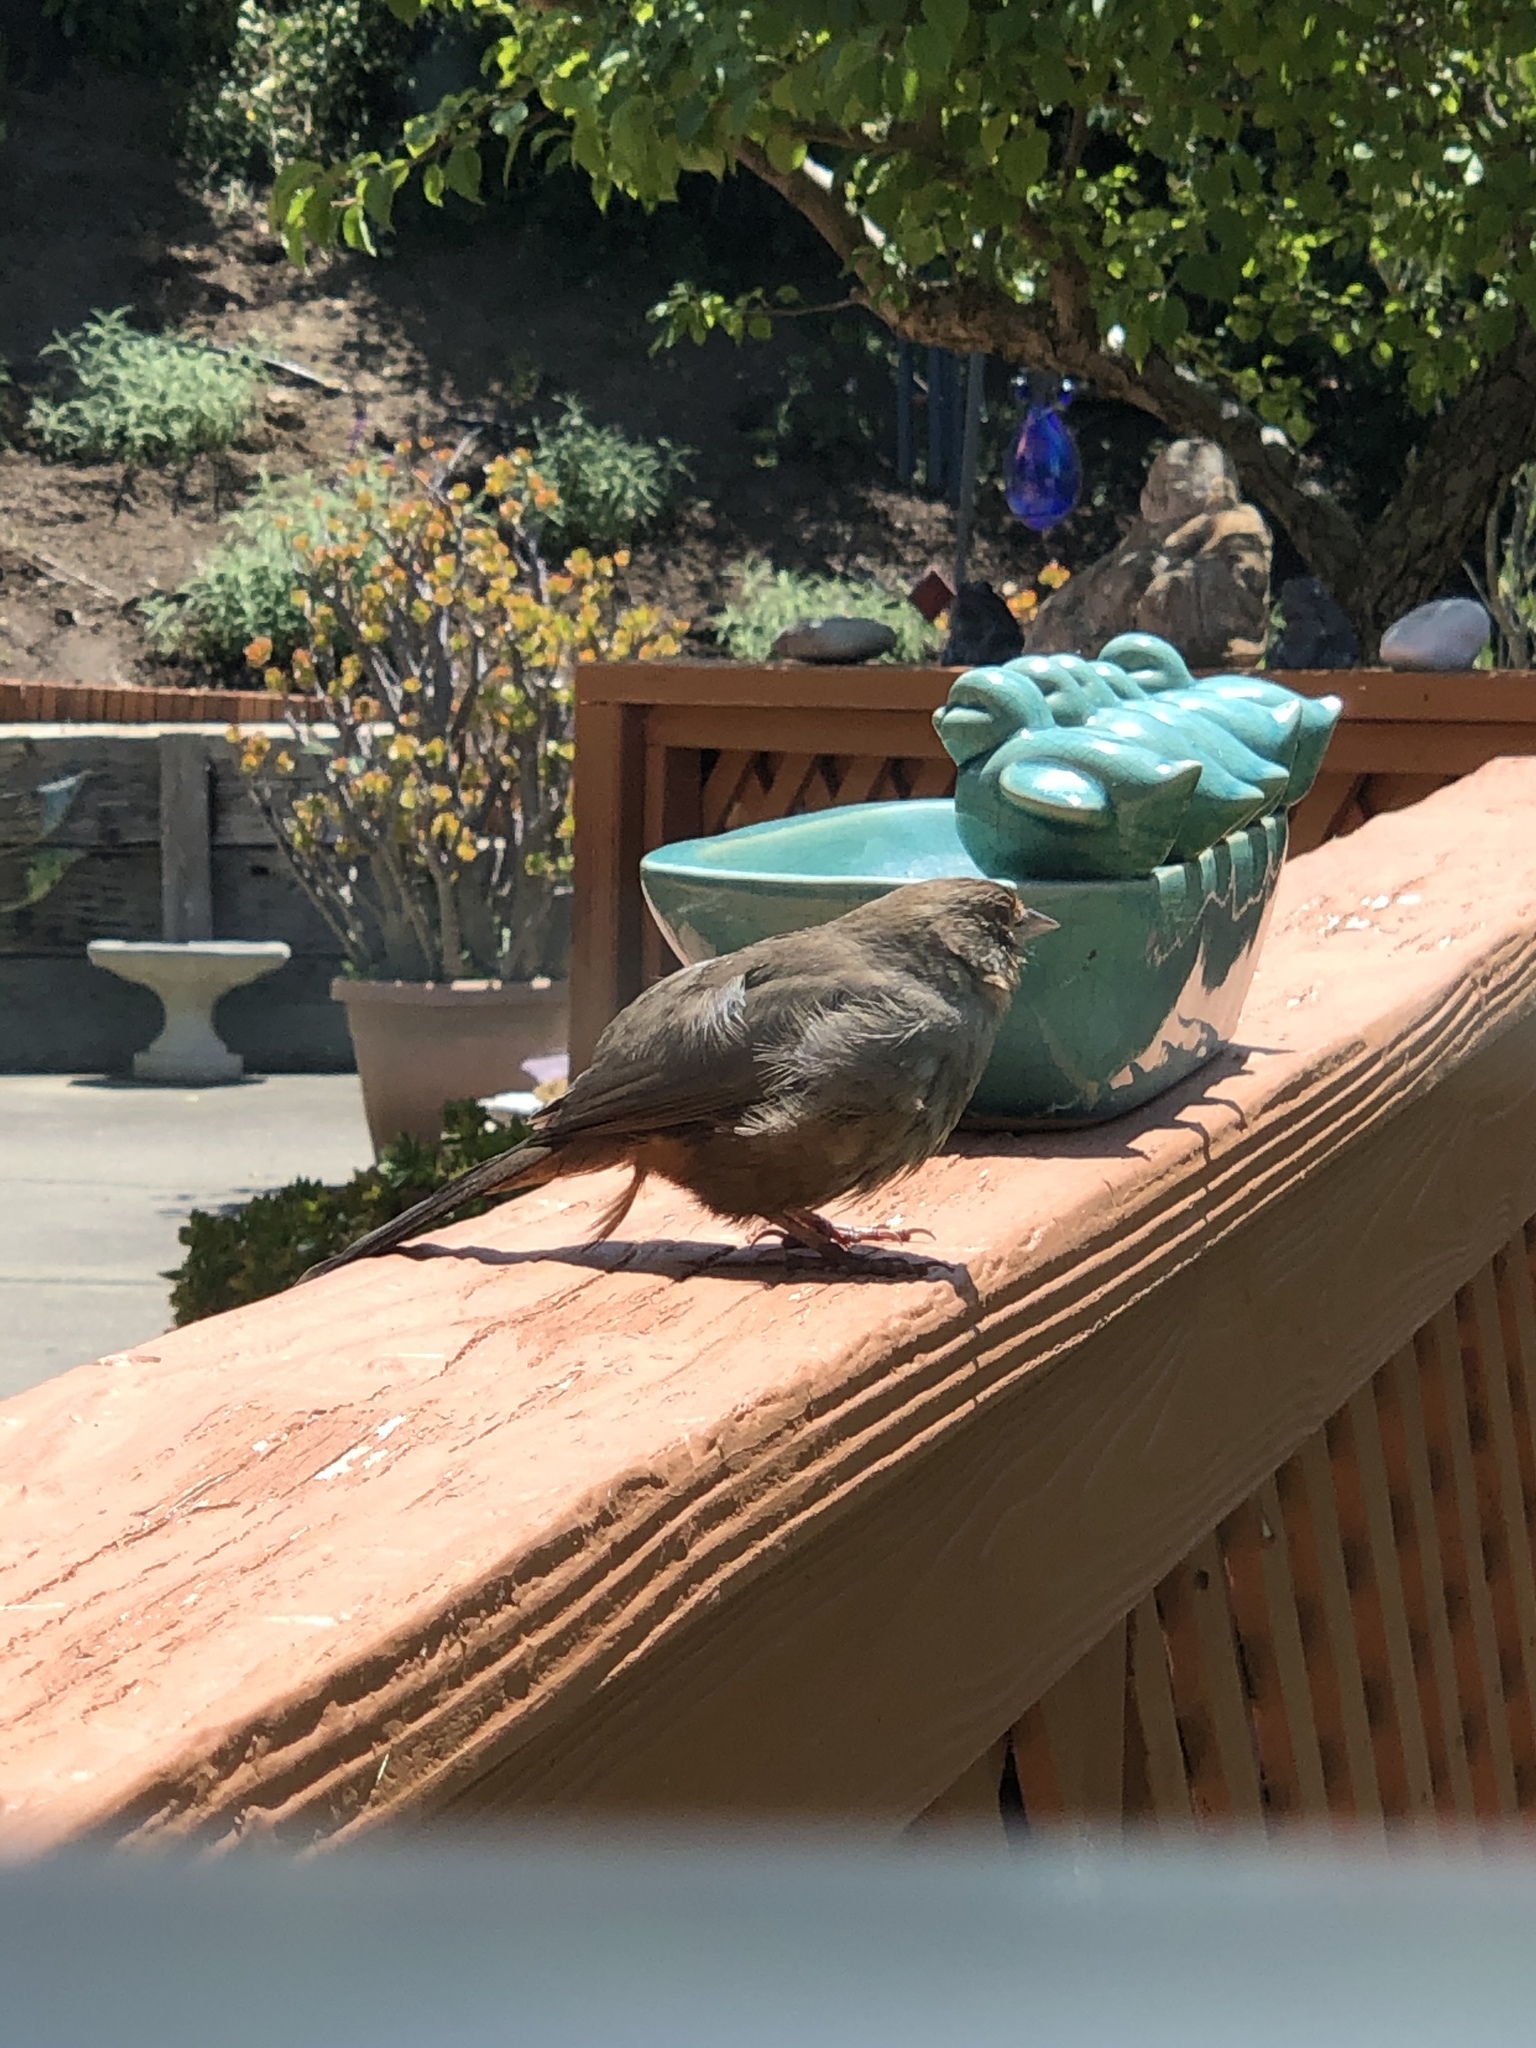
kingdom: Animalia
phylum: Chordata
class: Aves
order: Passeriformes
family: Passerellidae
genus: Melozone
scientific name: Melozone crissalis
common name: California towhee
